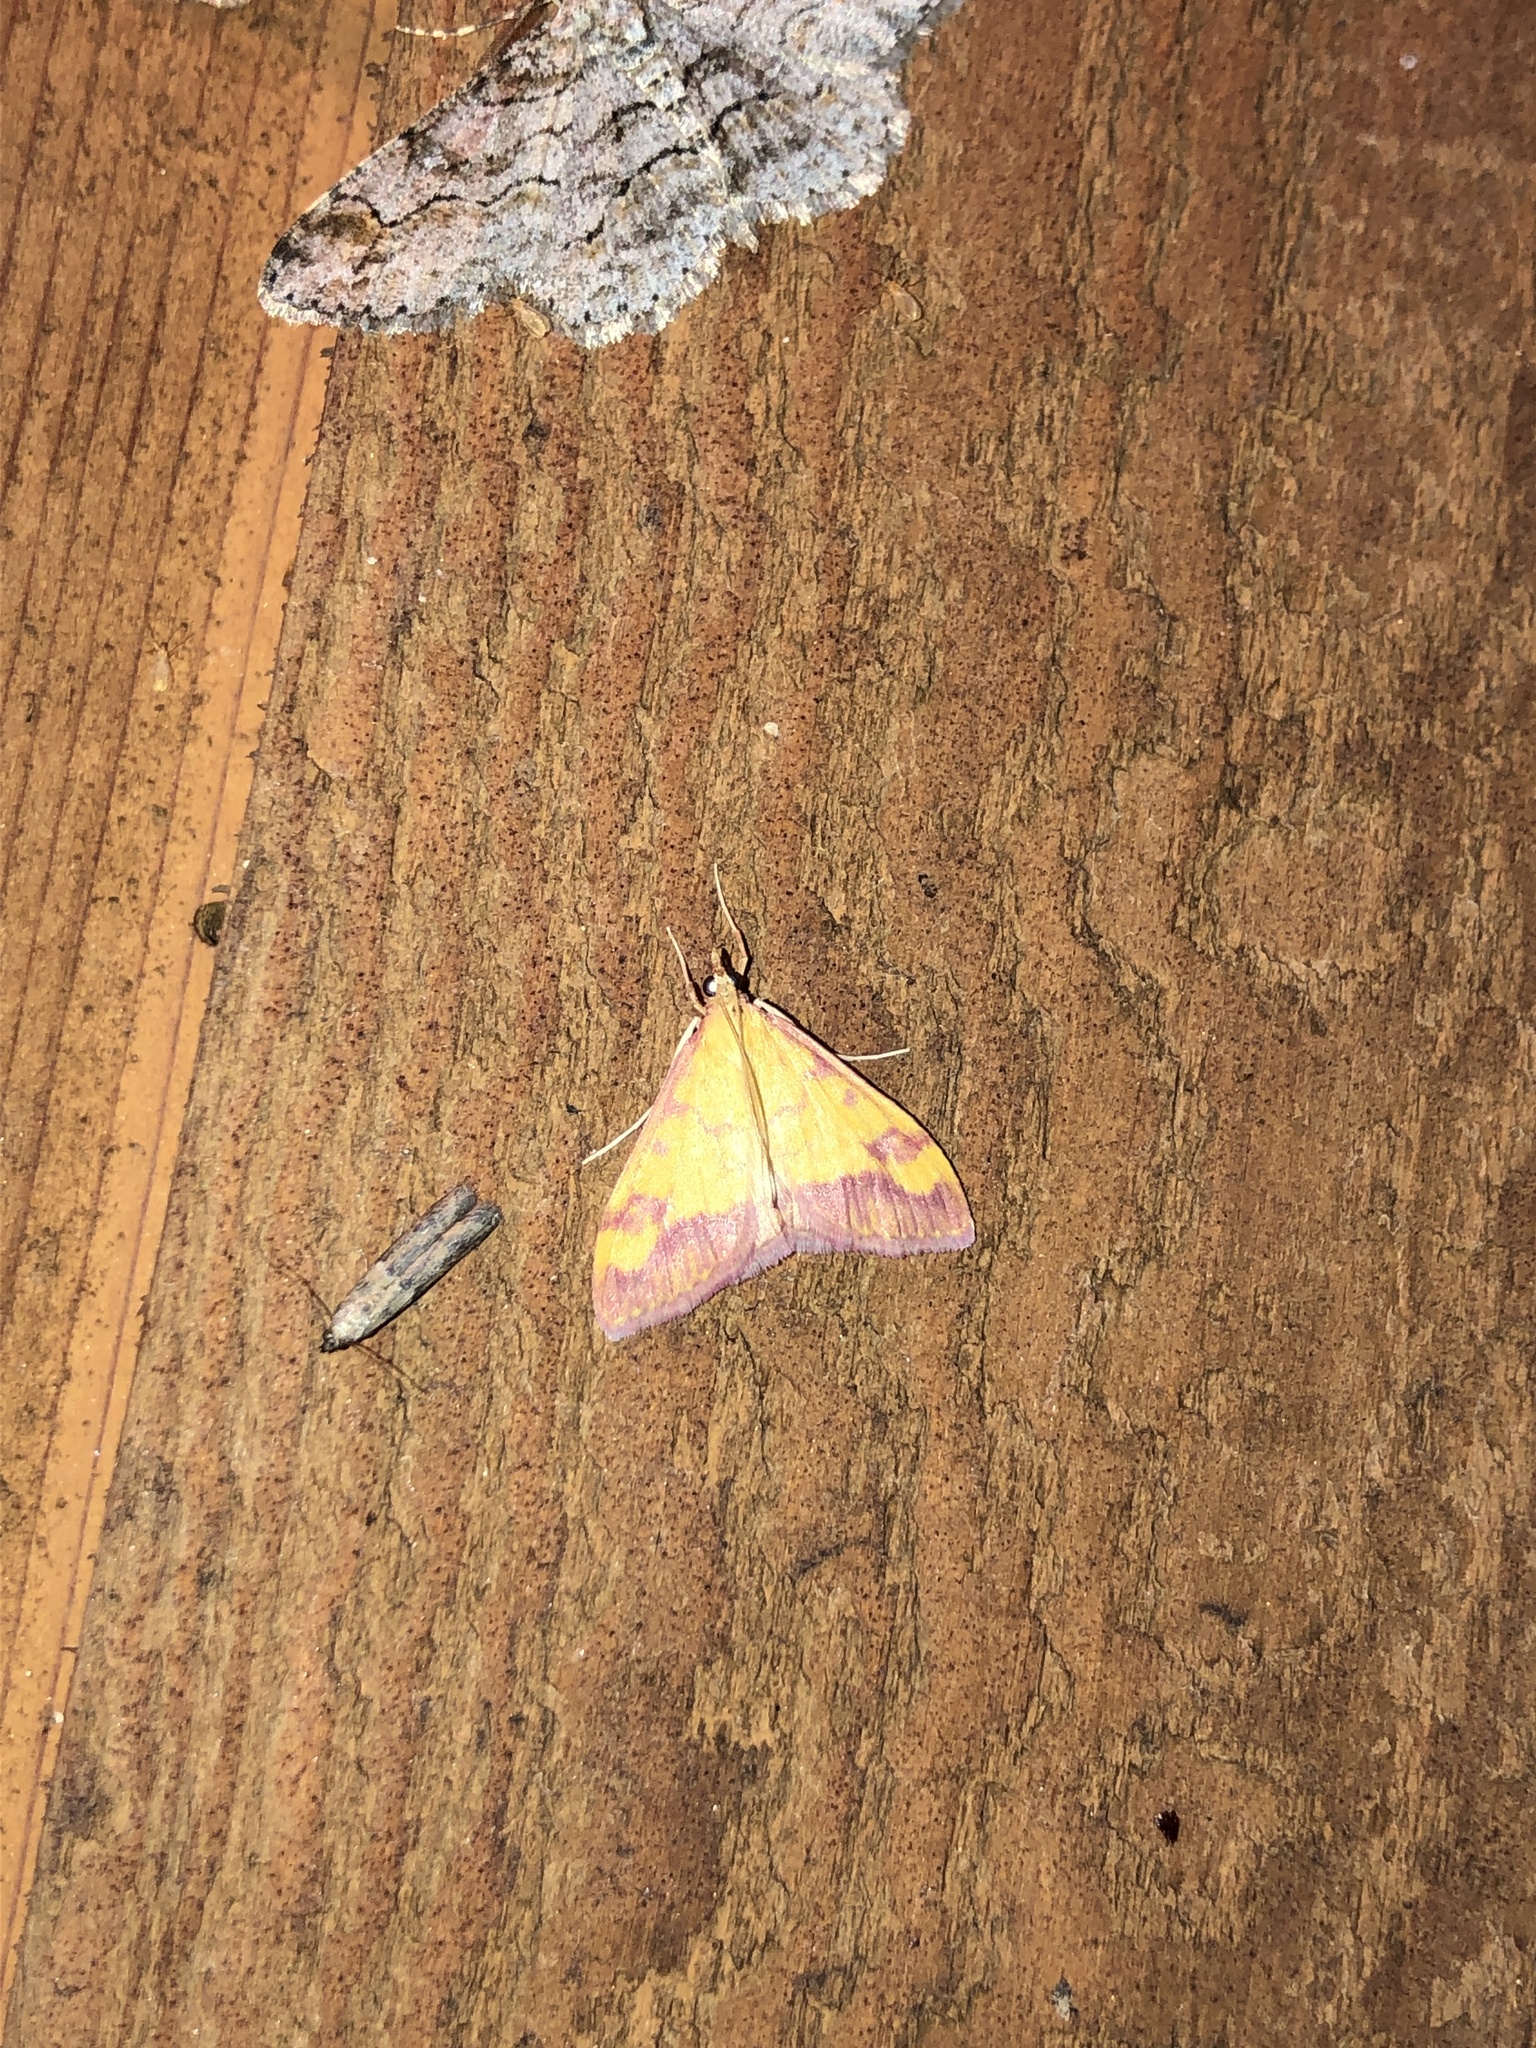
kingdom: Animalia
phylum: Arthropoda
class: Insecta
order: Lepidoptera
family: Crambidae
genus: Pyrausta
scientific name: Pyrausta perrubralis
